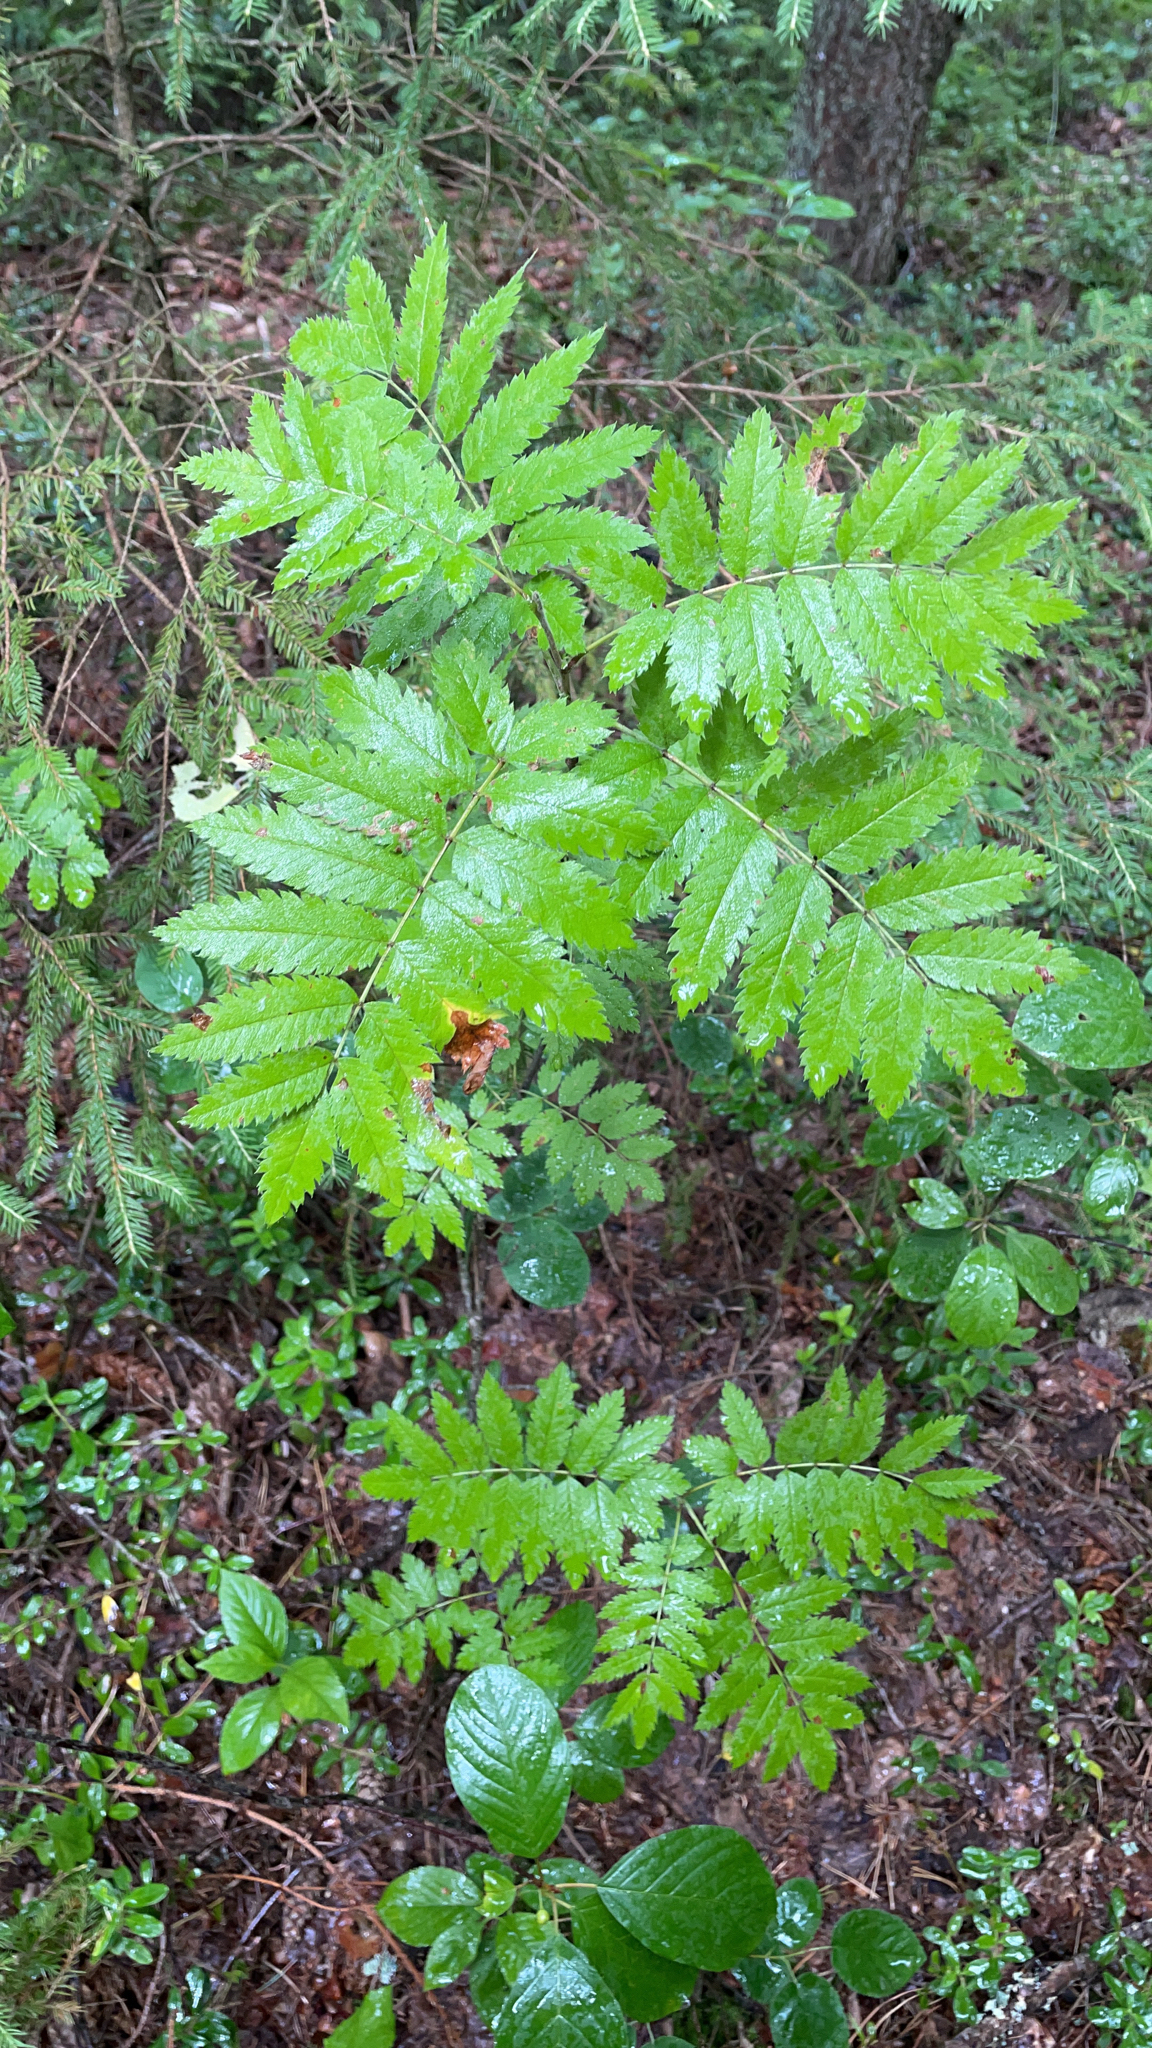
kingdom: Plantae
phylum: Tracheophyta
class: Magnoliopsida
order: Rosales
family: Rosaceae
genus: Sorbus
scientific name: Sorbus aucuparia
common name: Rowan
